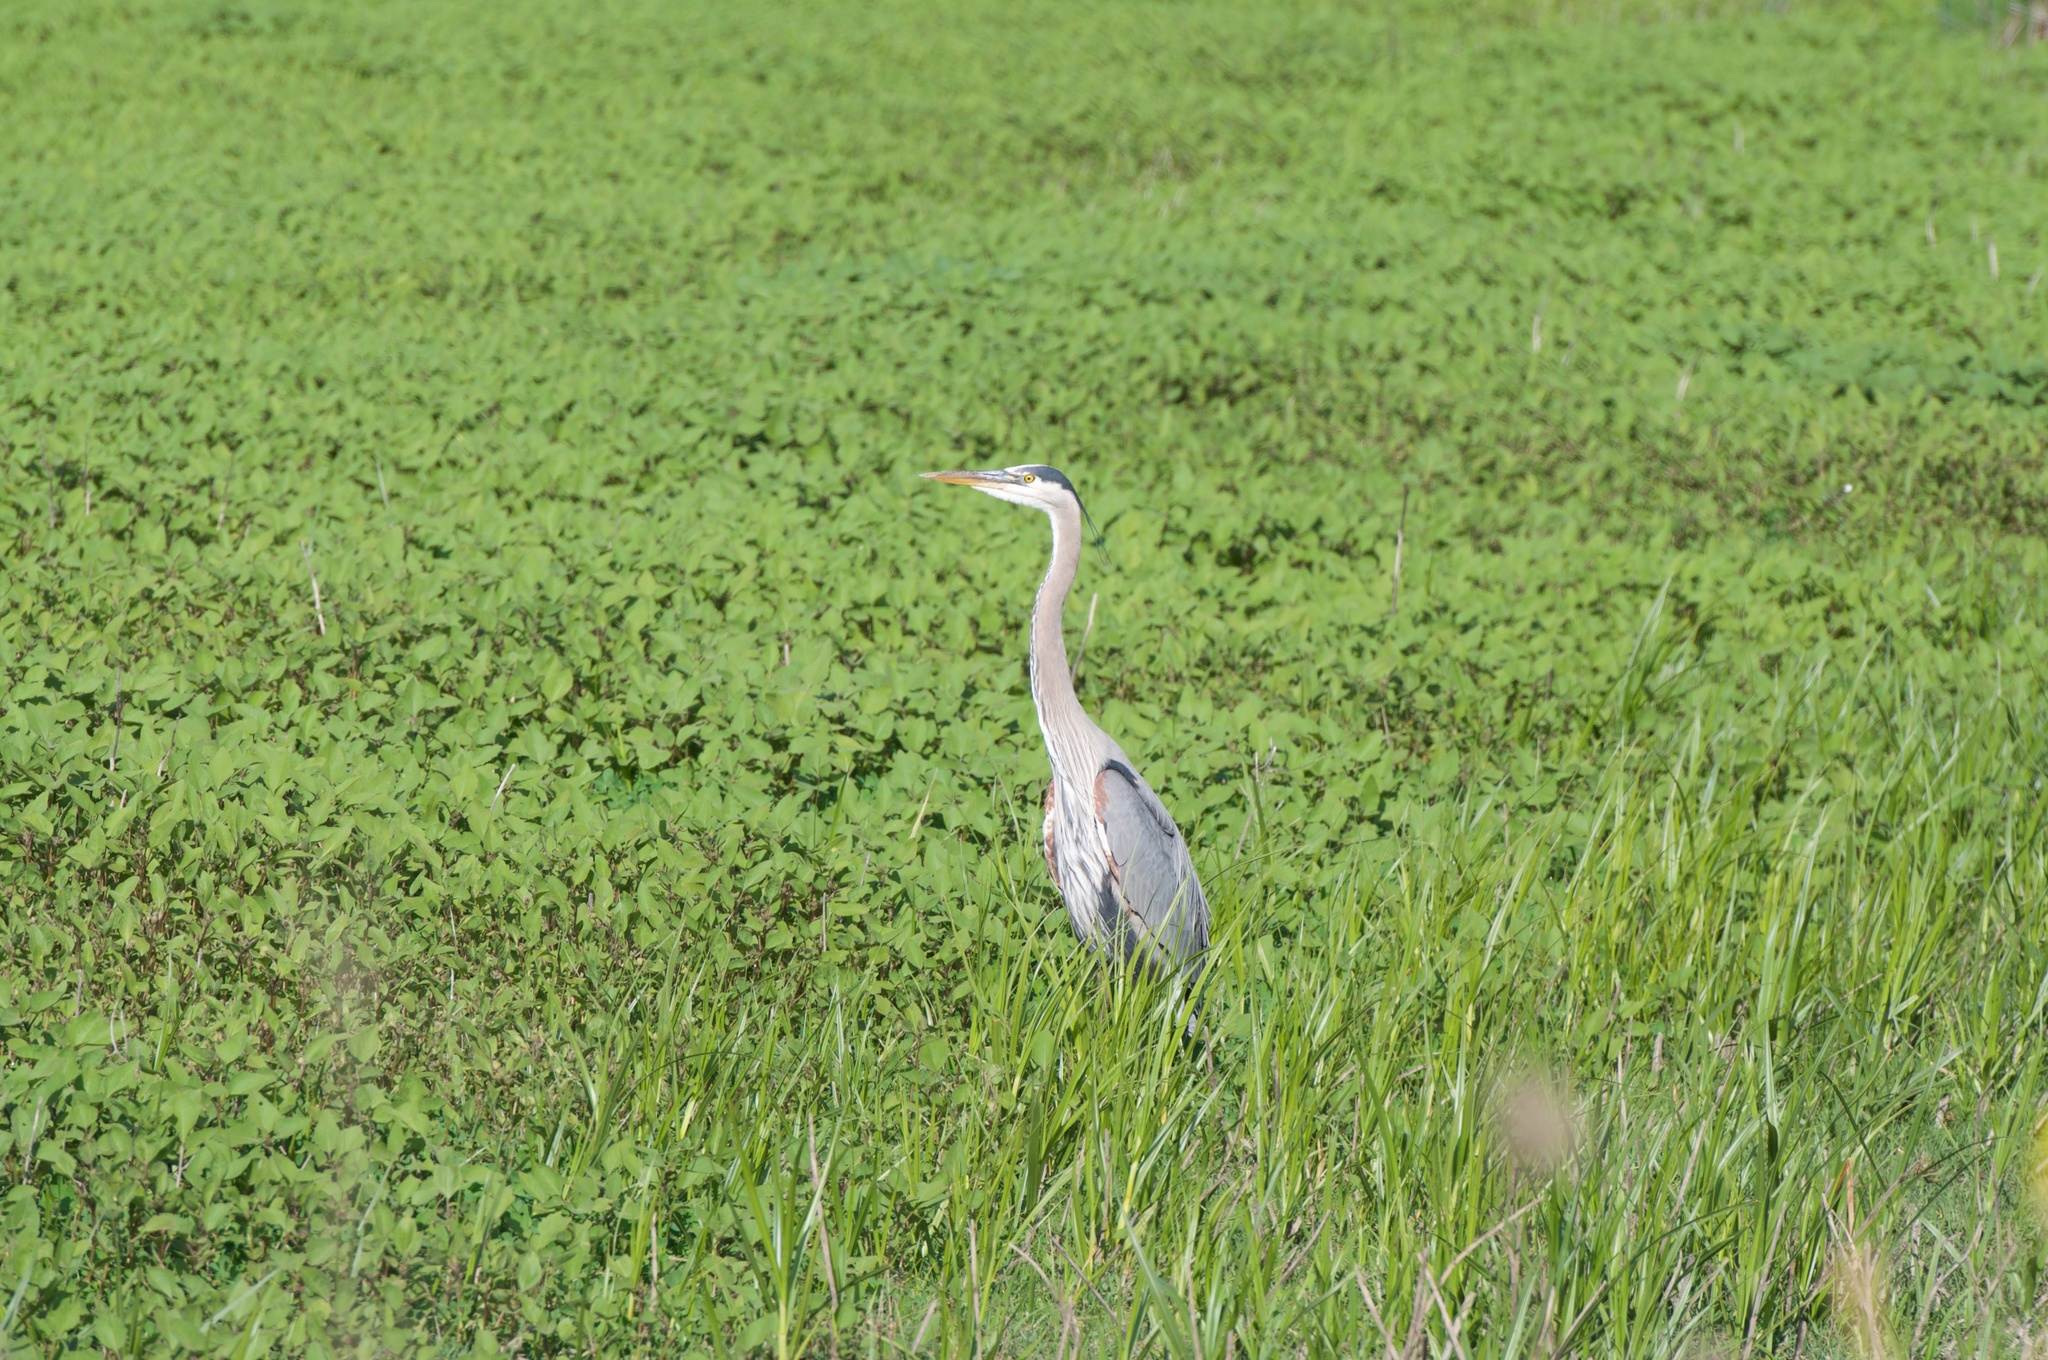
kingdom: Animalia
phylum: Chordata
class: Aves
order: Pelecaniformes
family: Ardeidae
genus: Ardea
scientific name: Ardea herodias
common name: Great blue heron
